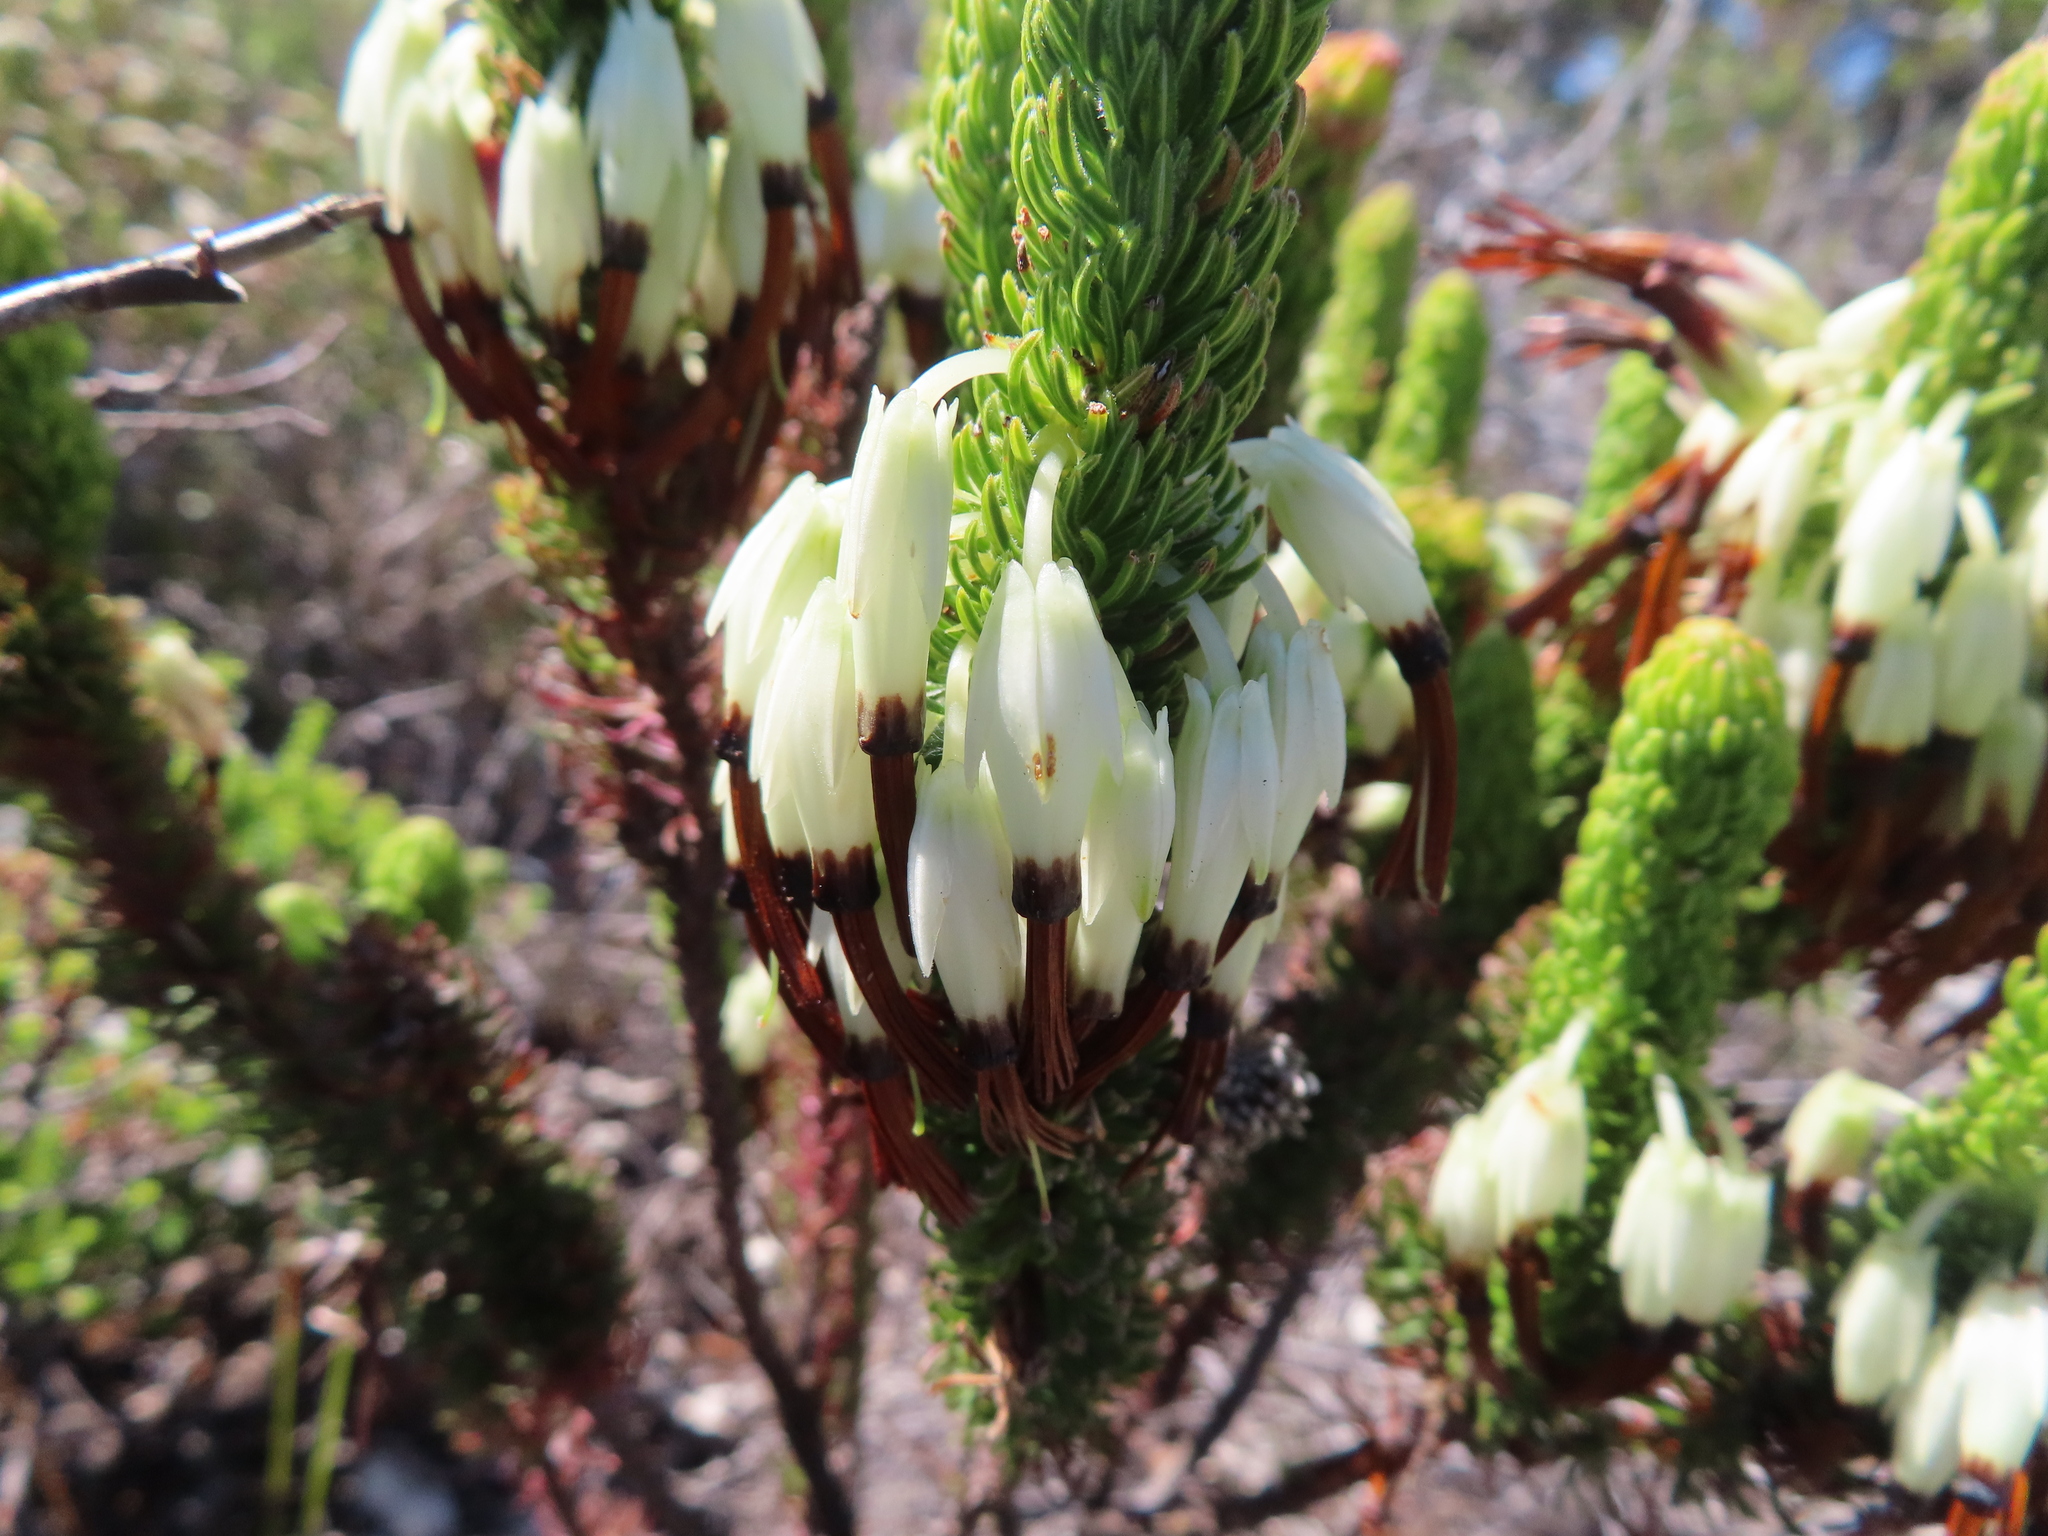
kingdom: Plantae
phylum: Tracheophyta
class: Magnoliopsida
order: Ericales
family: Ericaceae
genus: Erica
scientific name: Erica plukenetii
